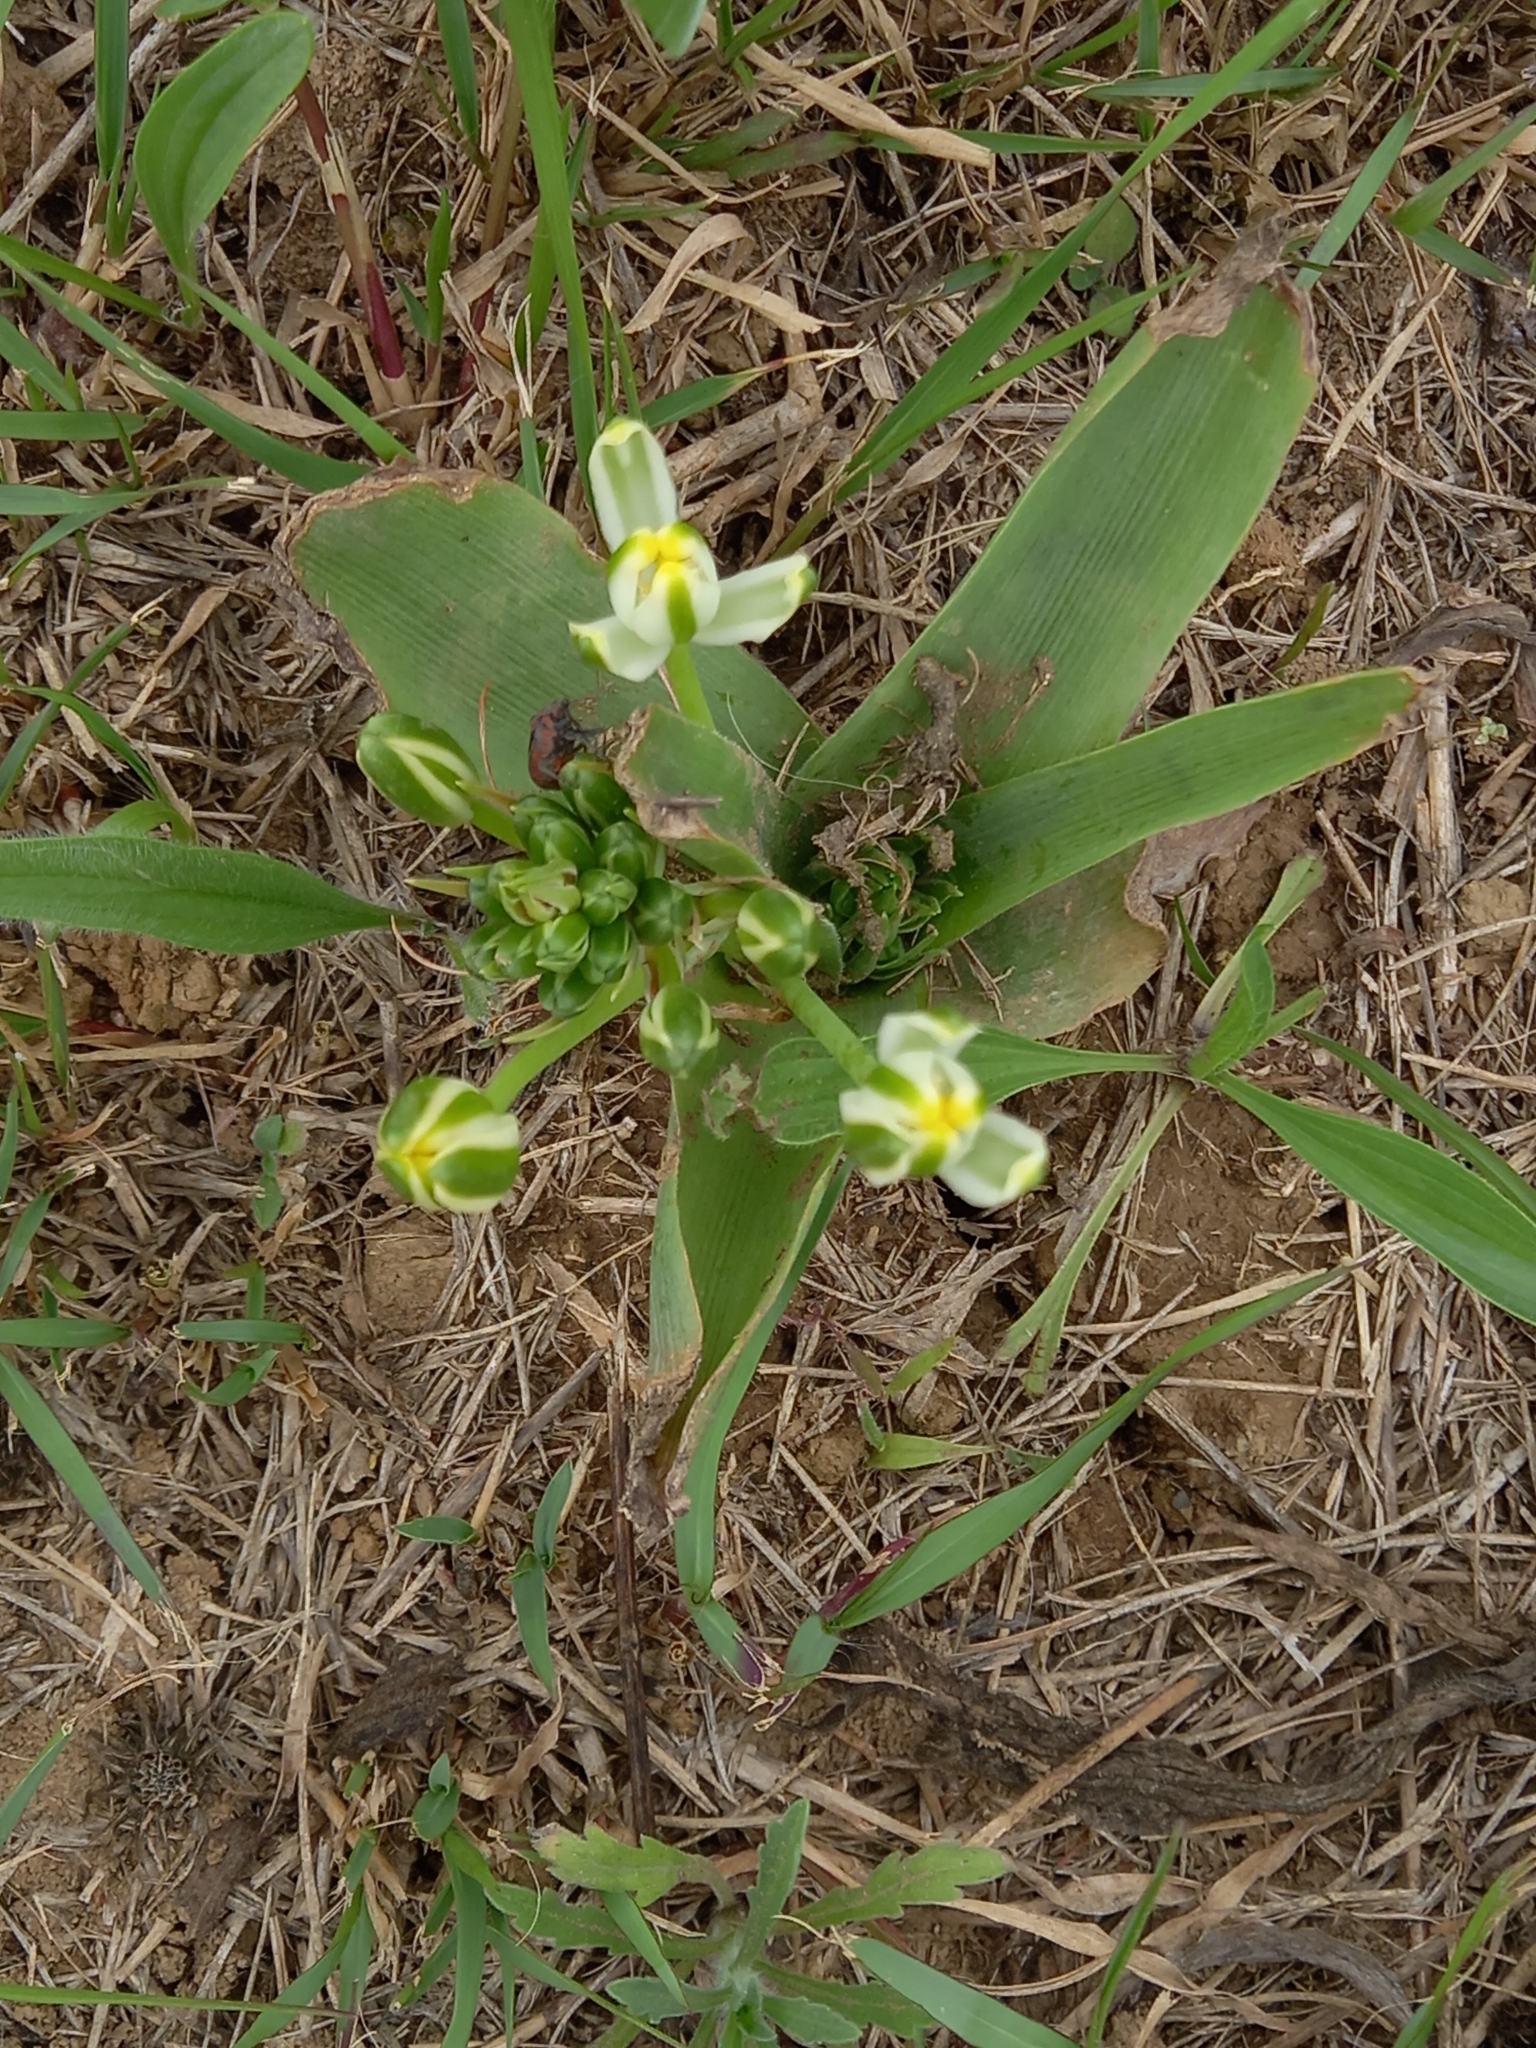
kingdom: Plantae
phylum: Tracheophyta
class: Liliopsida
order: Asparagales
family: Asparagaceae
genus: Albuca
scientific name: Albuca setosa
